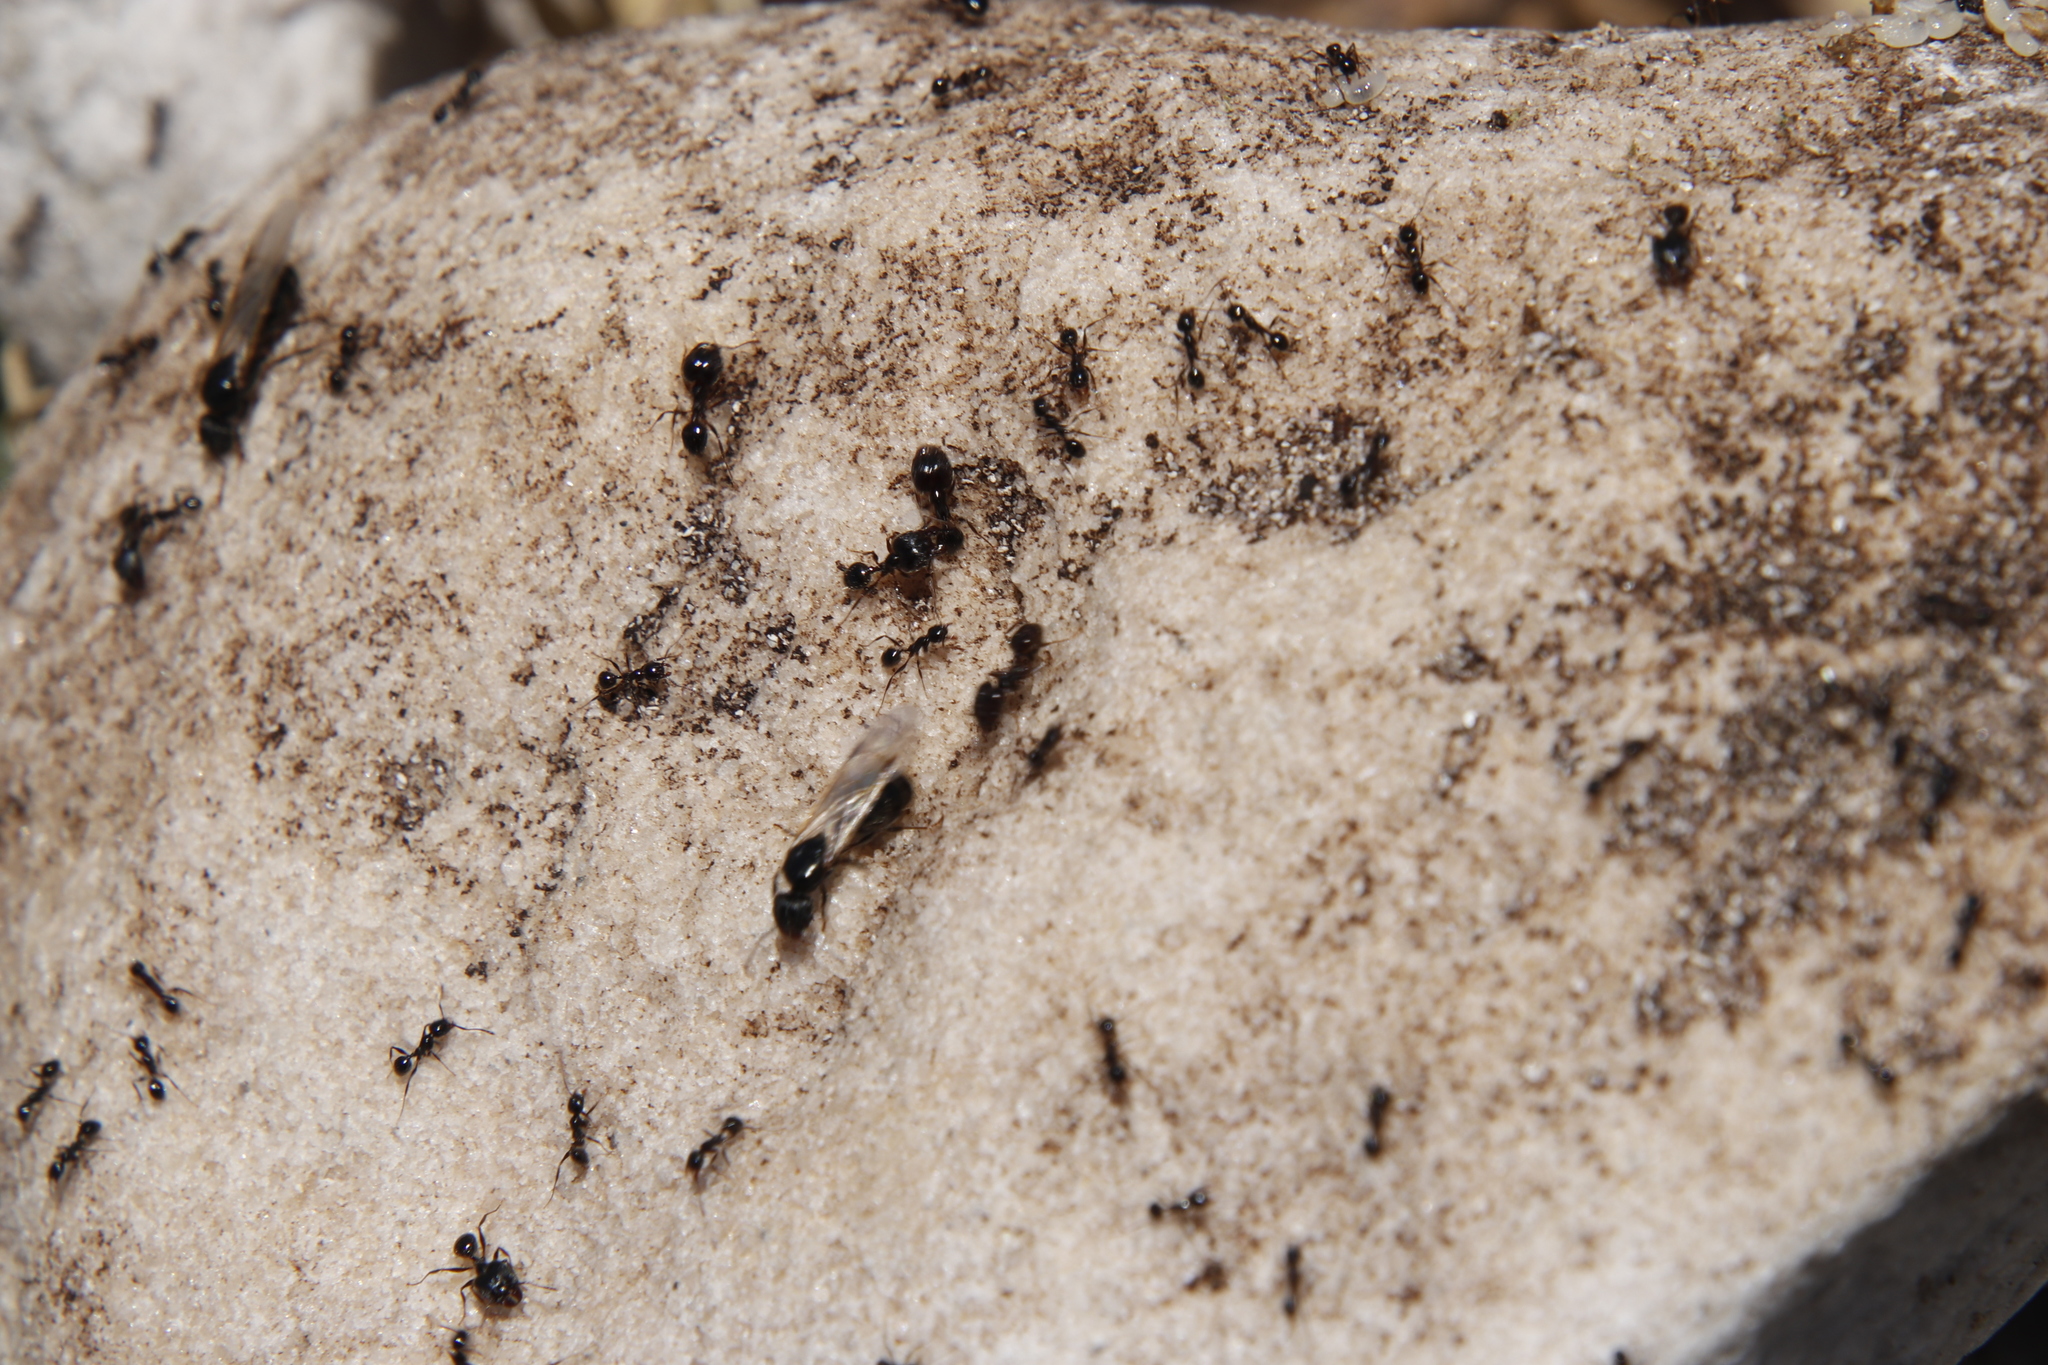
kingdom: Animalia
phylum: Arthropoda
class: Insecta
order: Hymenoptera
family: Formicidae
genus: Pheidole
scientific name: Pheidole foreli
